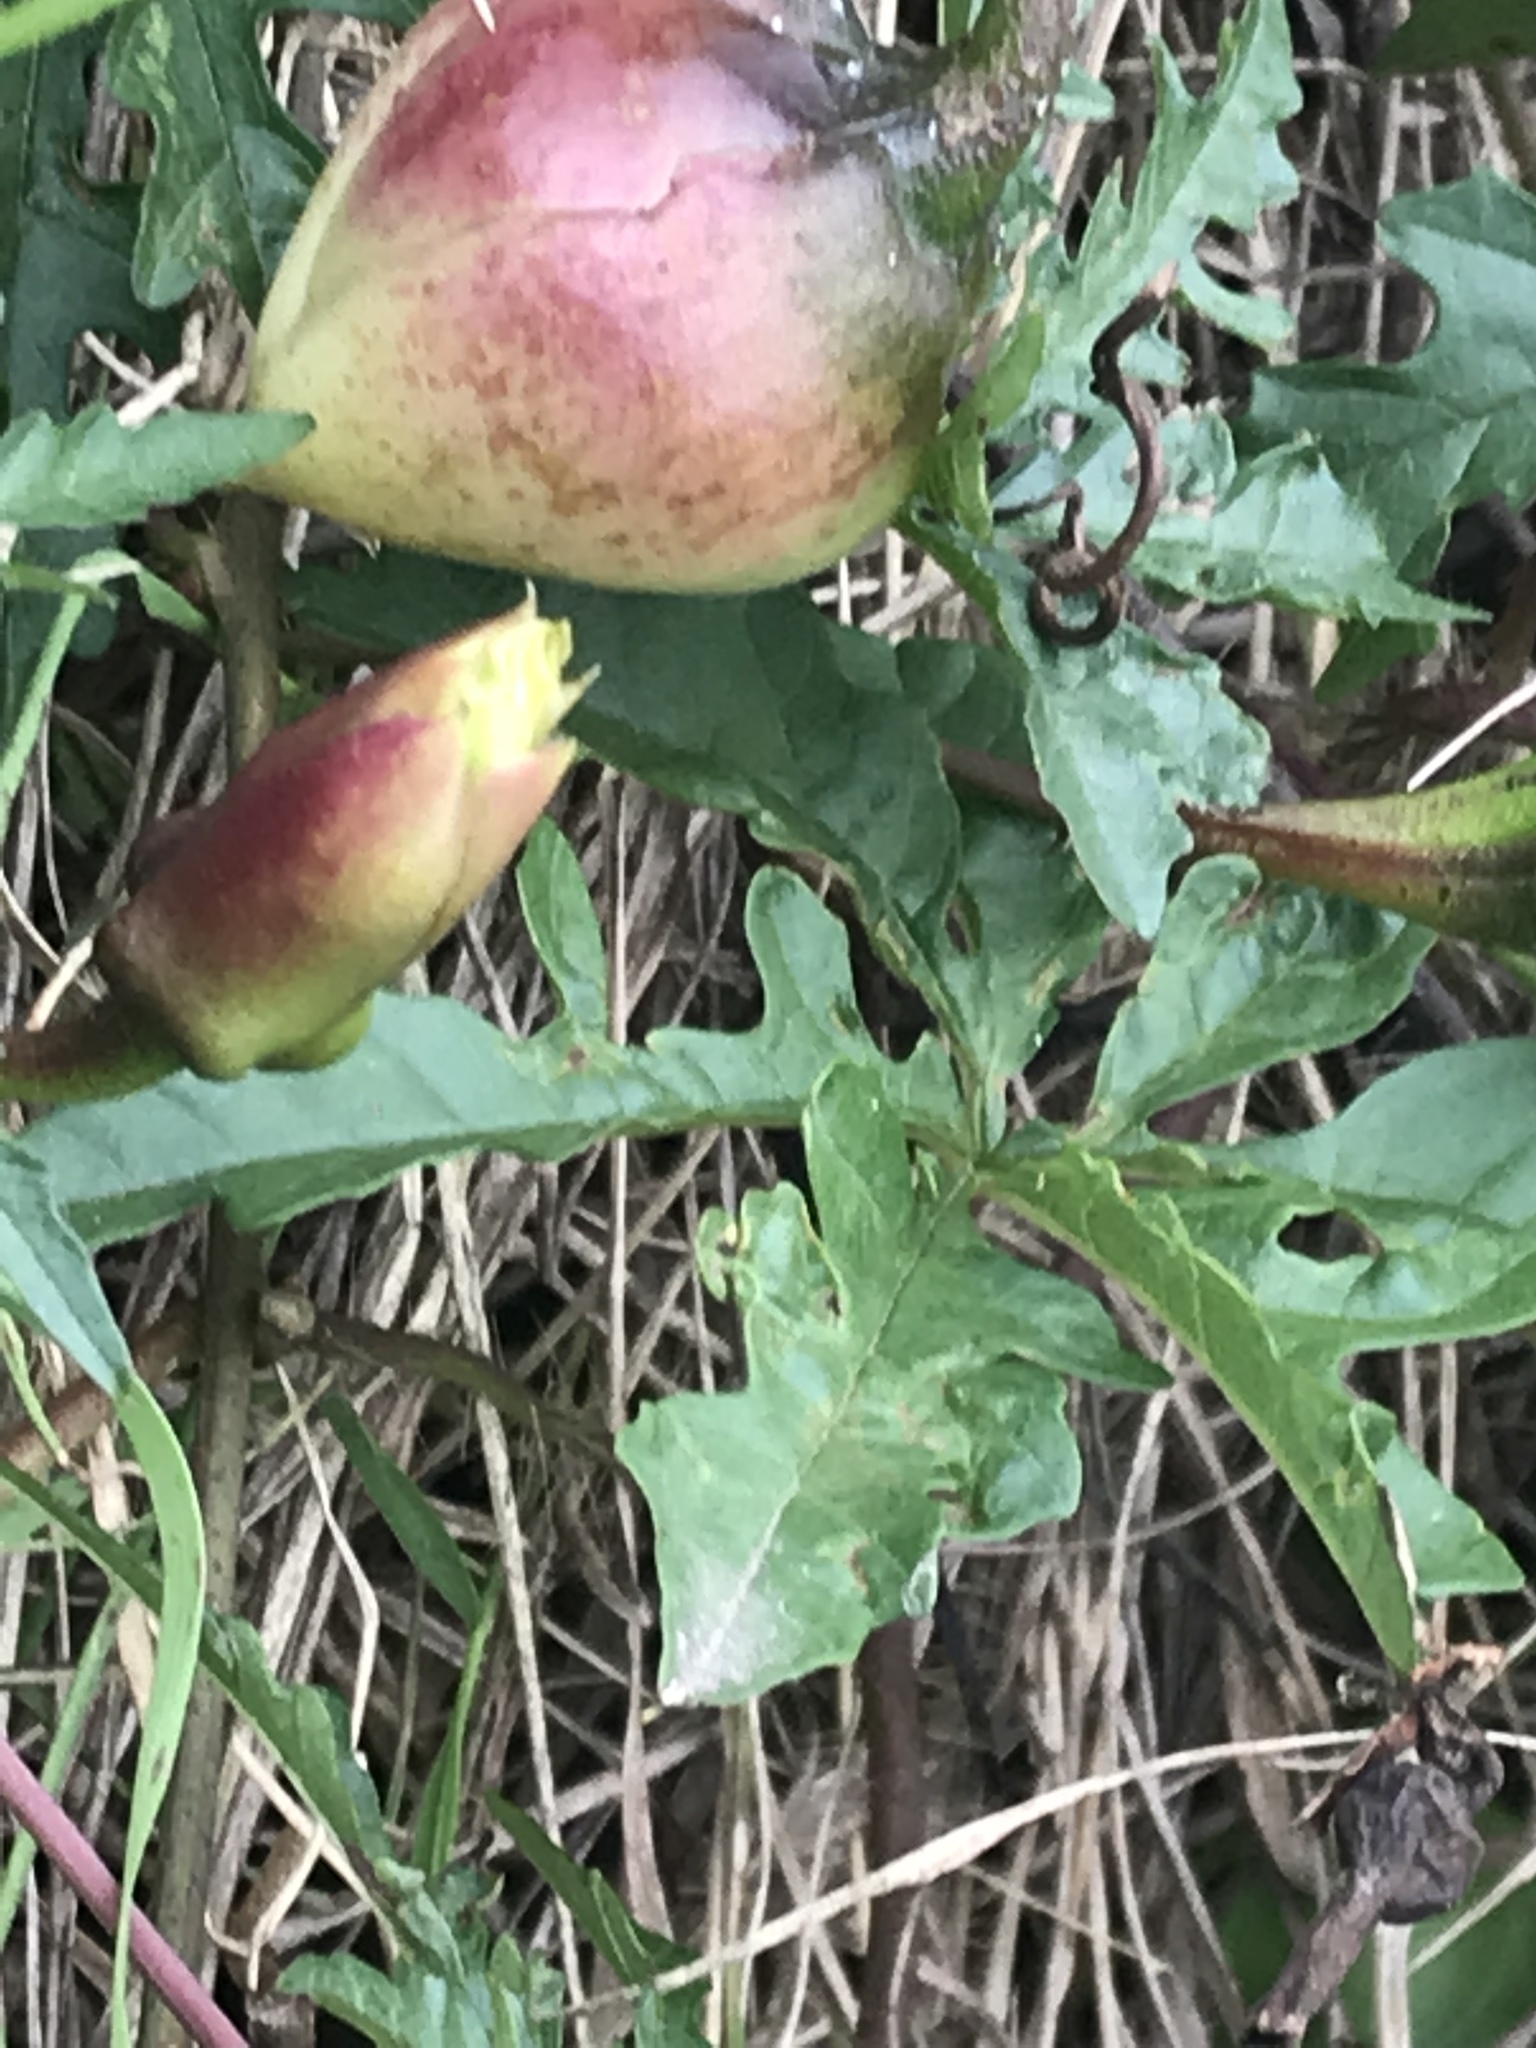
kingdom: Plantae
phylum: Tracheophyta
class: Magnoliopsida
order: Solanales
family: Convolvulaceae
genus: Distimake
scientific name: Distimake dissectus
